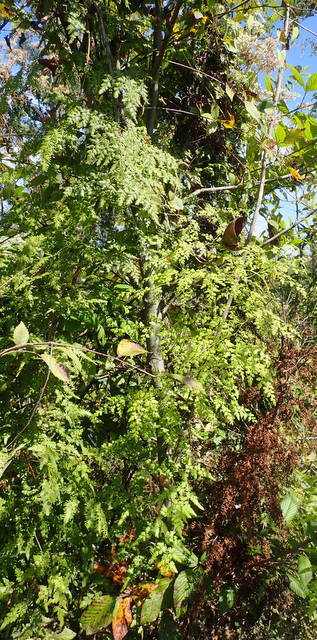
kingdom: Plantae
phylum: Tracheophyta
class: Polypodiopsida
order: Schizaeales
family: Lygodiaceae
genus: Lygodium
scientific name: Lygodium japonicum
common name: Japanese climbing fern
